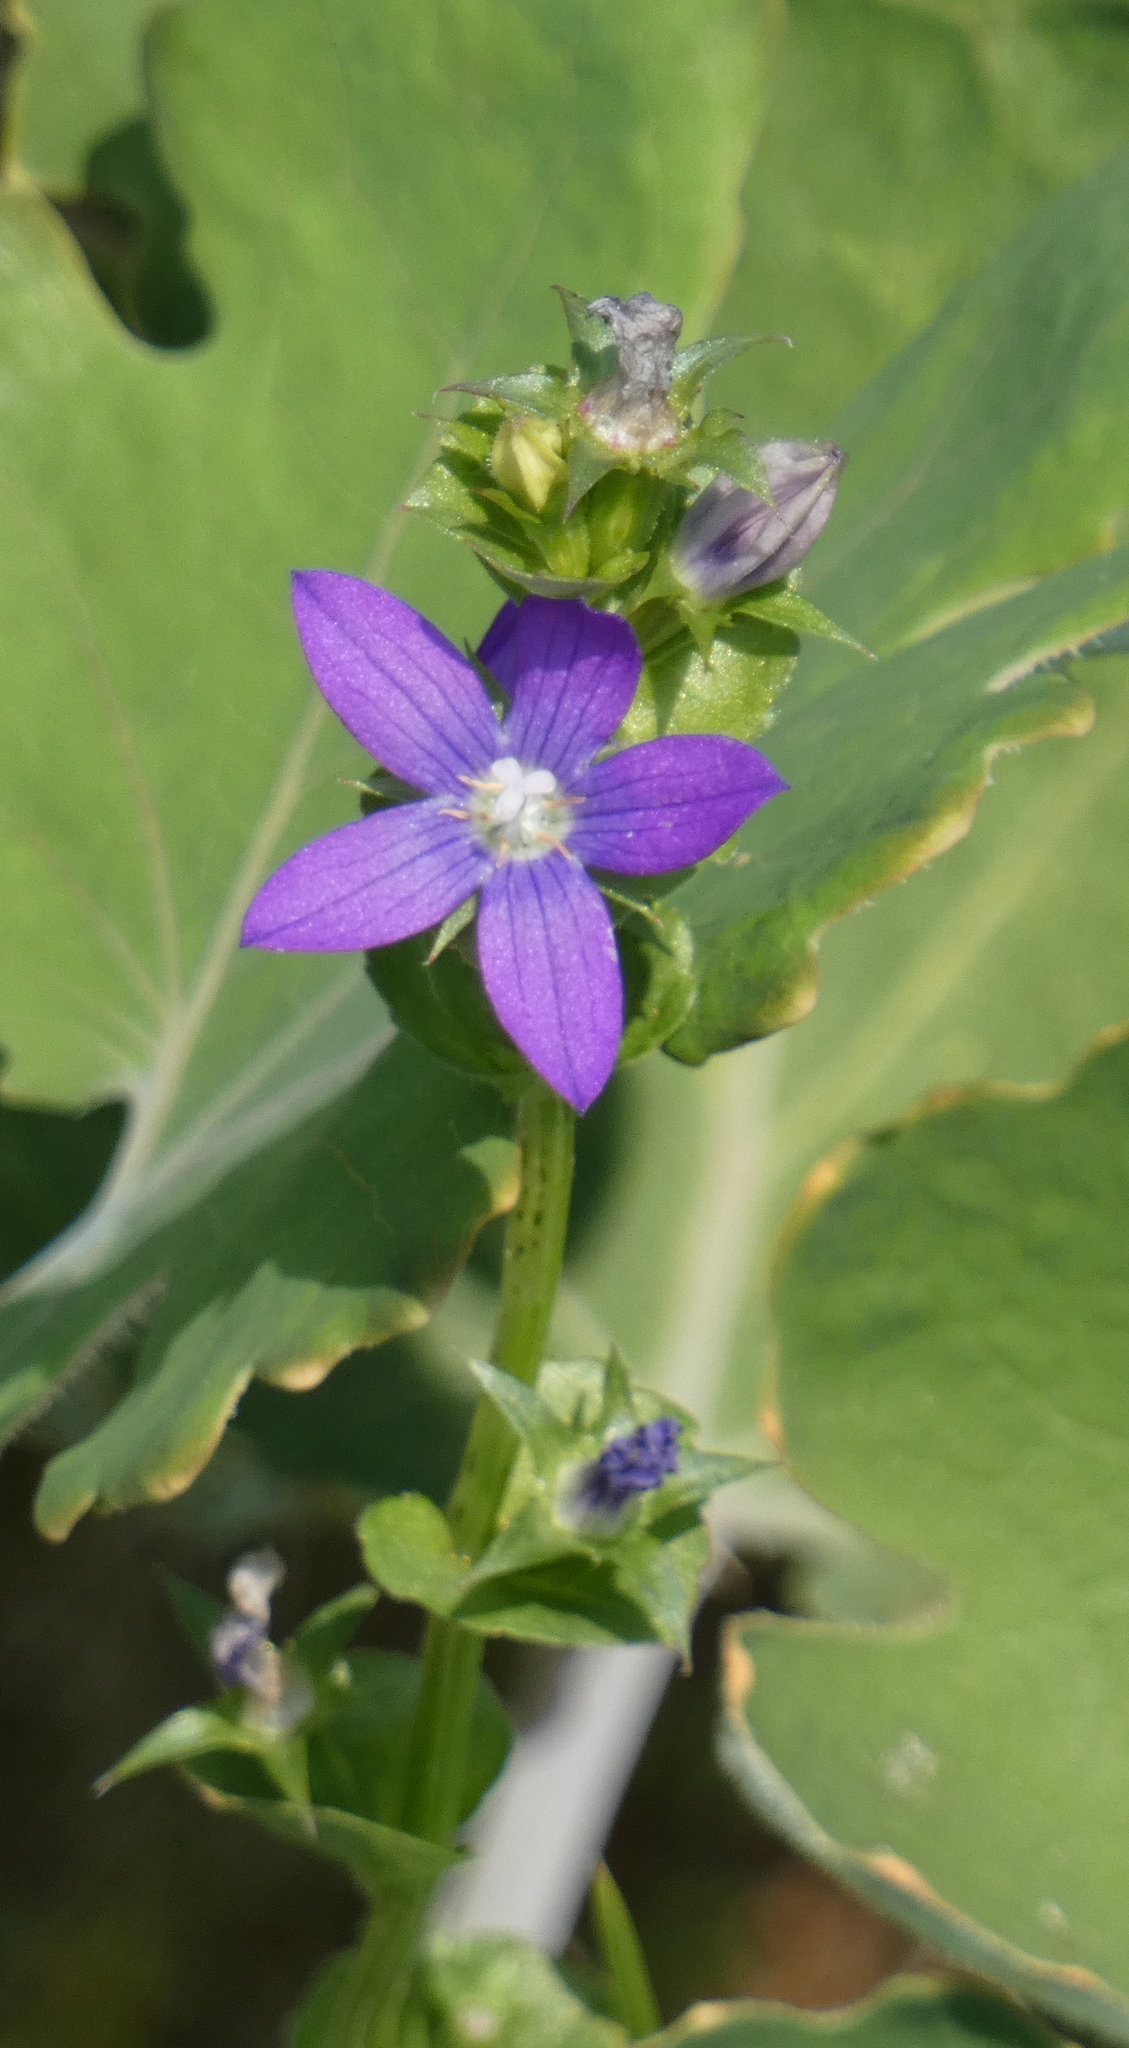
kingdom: Plantae
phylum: Tracheophyta
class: Magnoliopsida
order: Asterales
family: Campanulaceae
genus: Triodanis
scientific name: Triodanis perfoliata
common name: Clasping venus' looking-glass
